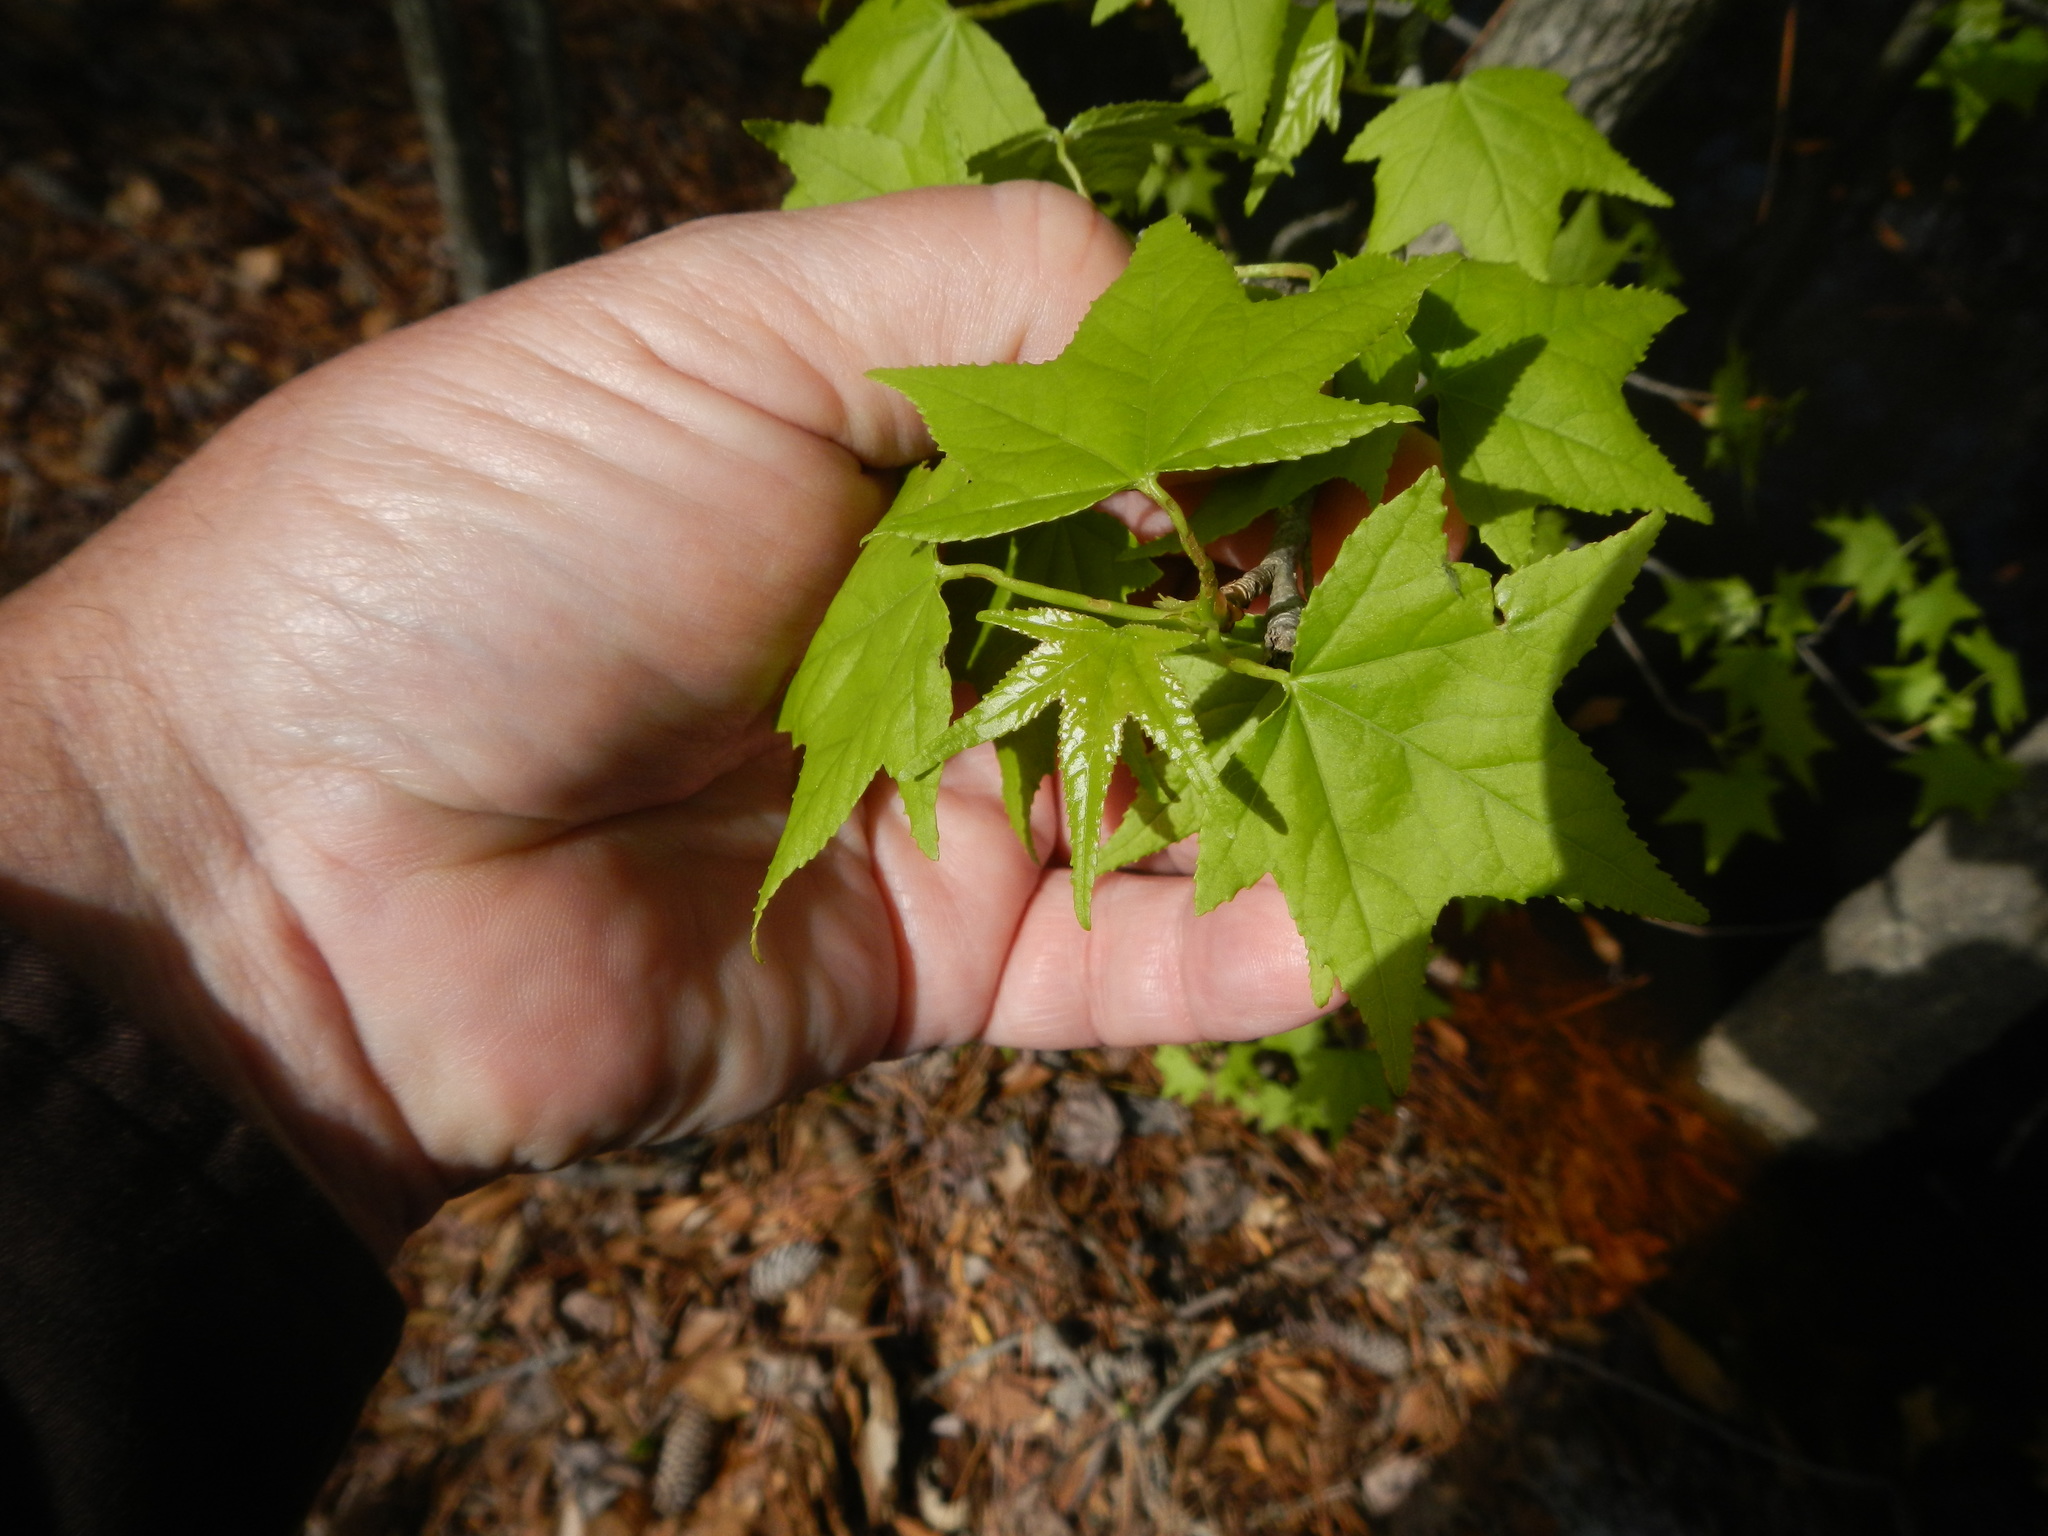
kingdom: Plantae
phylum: Tracheophyta
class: Magnoliopsida
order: Saxifragales
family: Altingiaceae
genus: Liquidambar
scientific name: Liquidambar styraciflua
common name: Sweet gum
